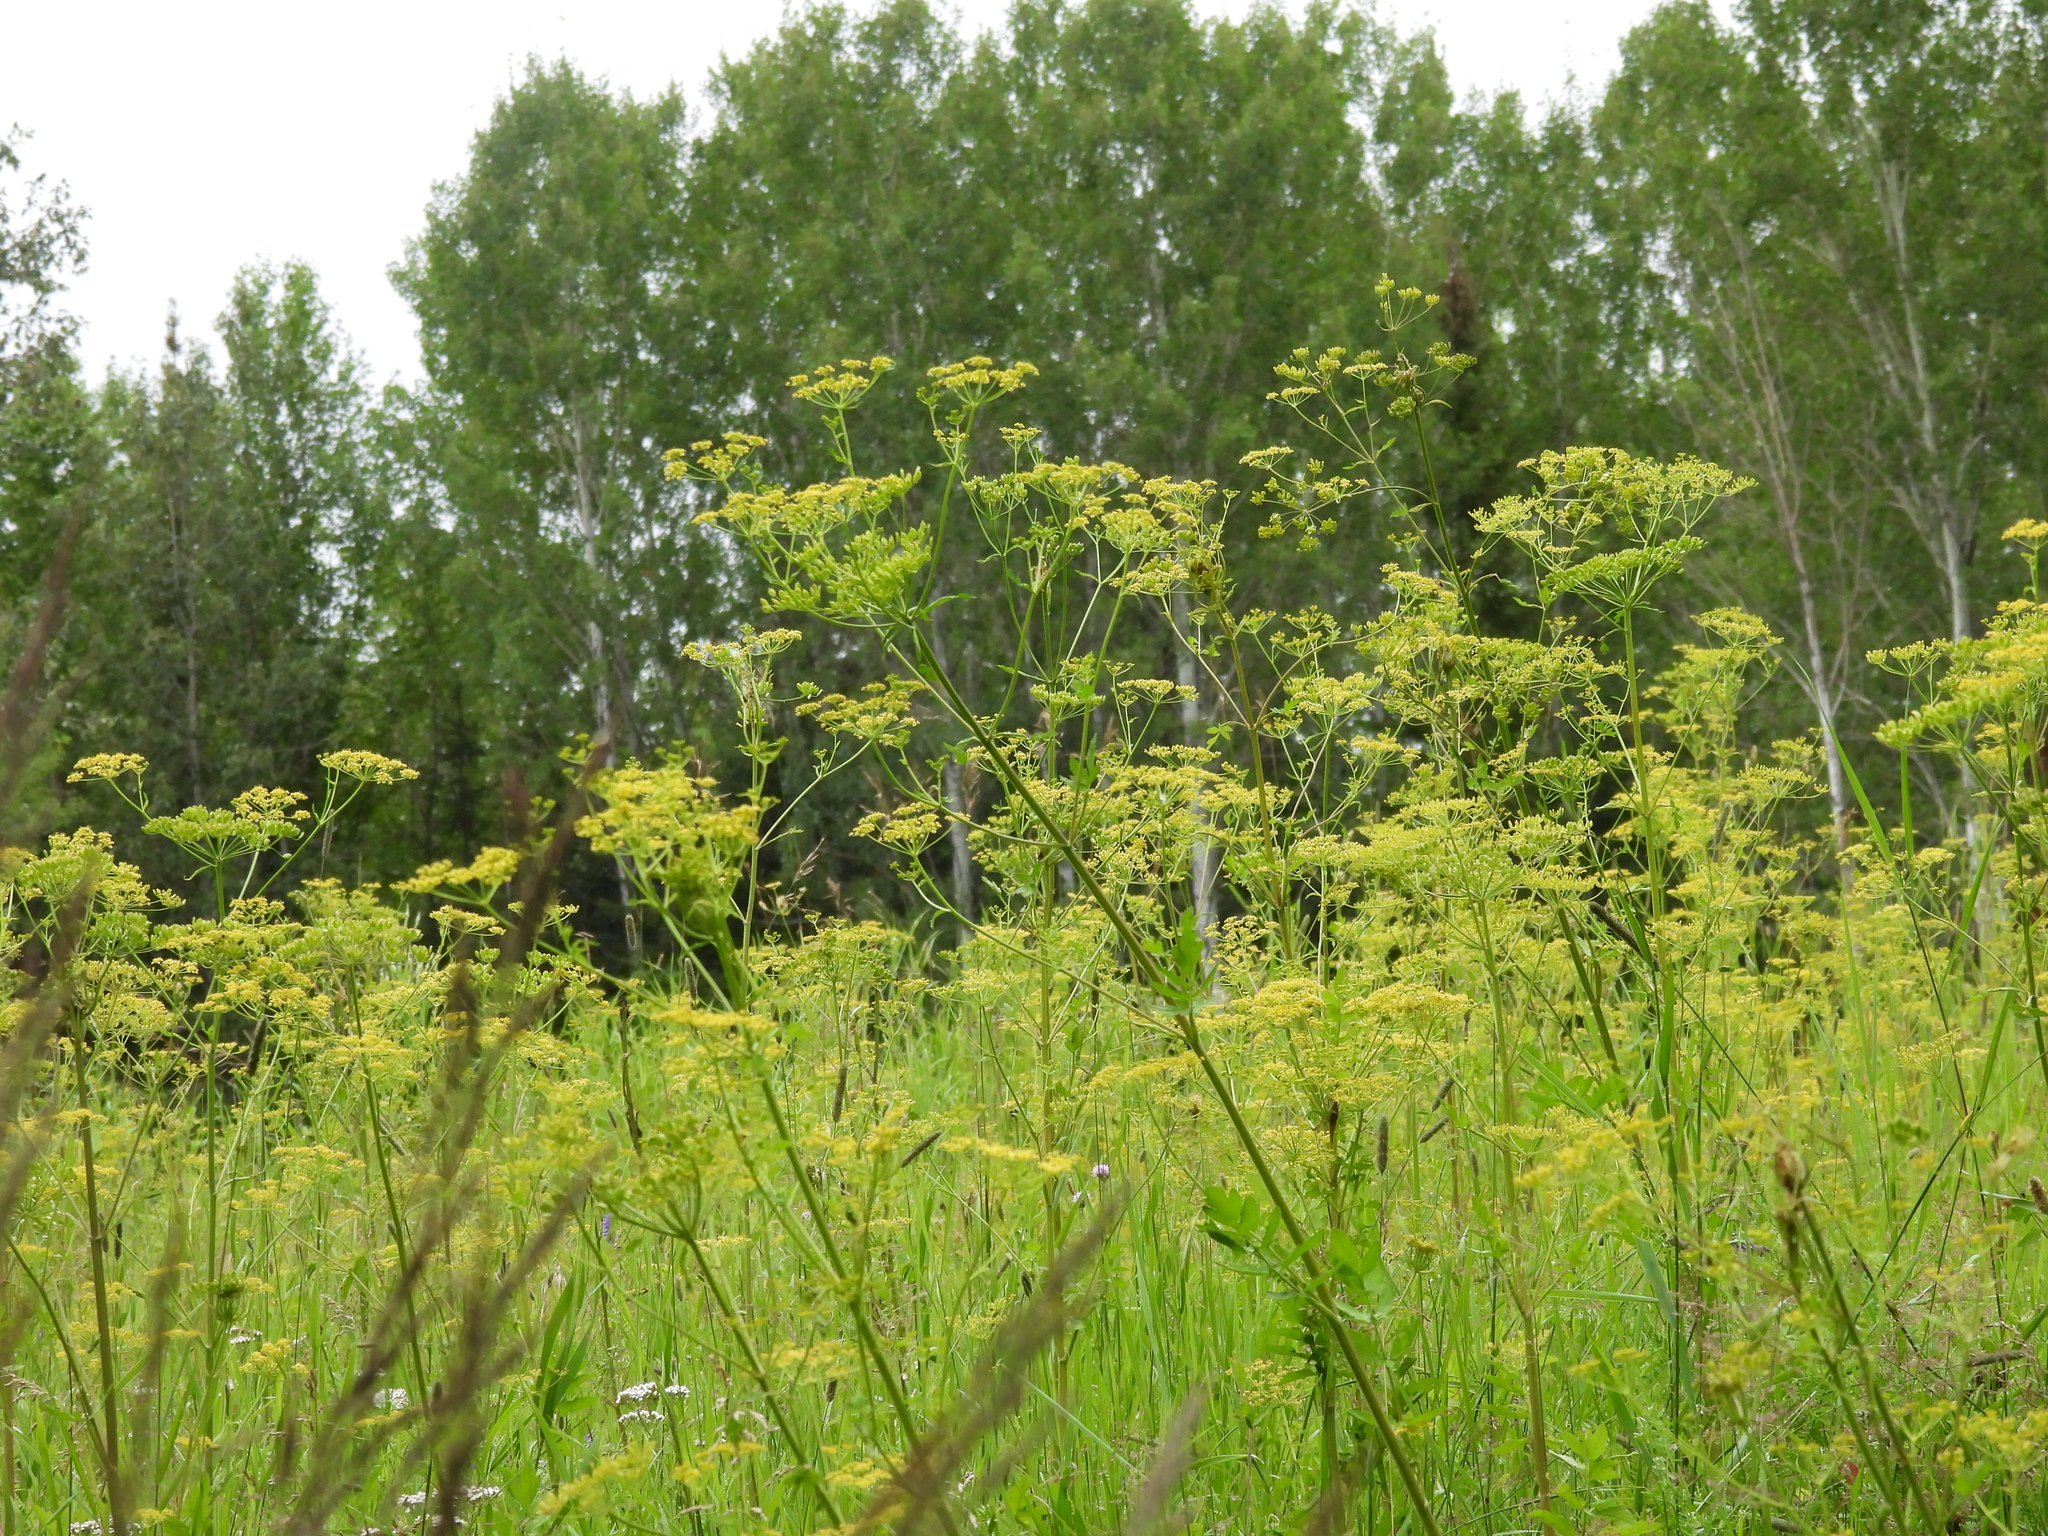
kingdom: Plantae
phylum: Tracheophyta
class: Magnoliopsida
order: Apiales
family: Apiaceae
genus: Pastinaca
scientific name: Pastinaca sativa
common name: Wild parsnip
